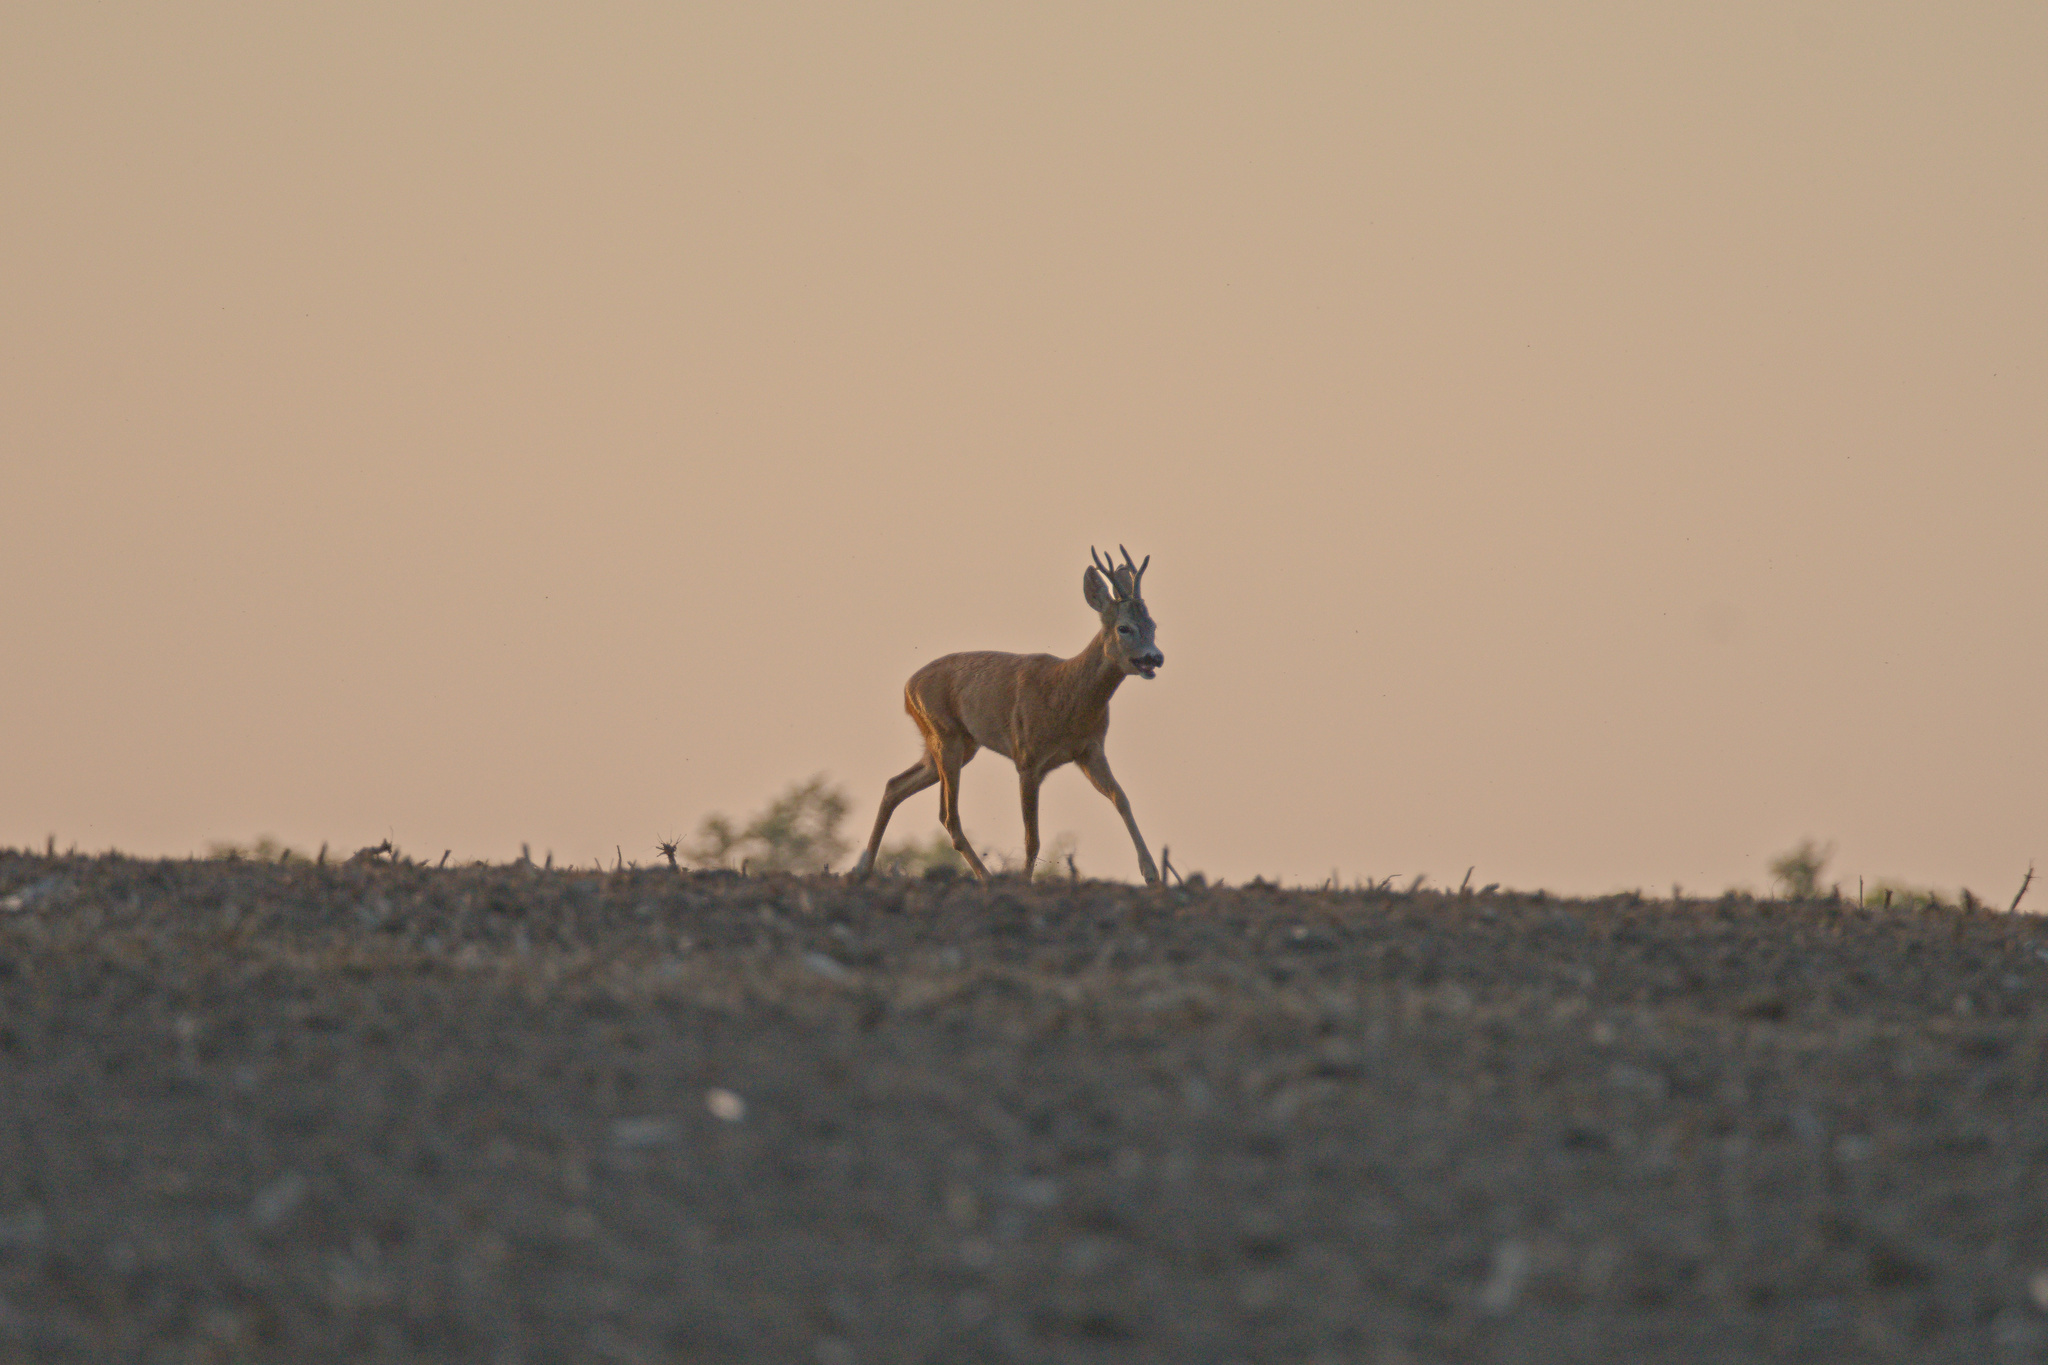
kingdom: Animalia
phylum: Chordata
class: Mammalia
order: Artiodactyla
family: Cervidae
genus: Capreolus
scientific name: Capreolus capreolus
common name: Western roe deer
